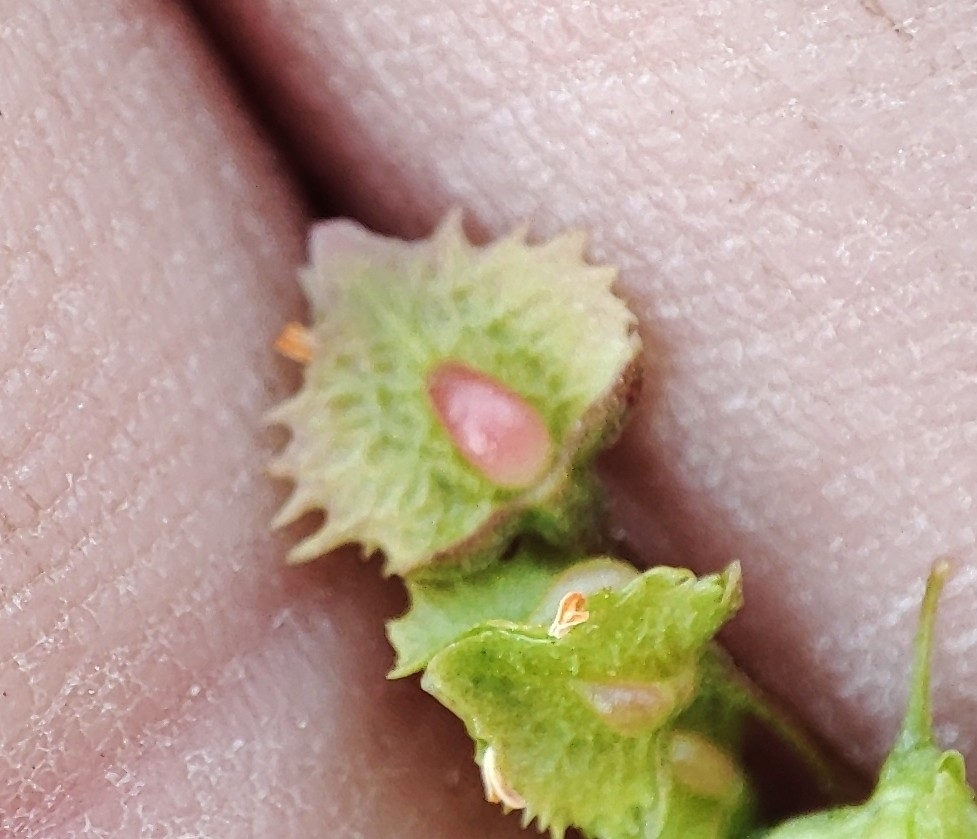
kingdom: Plantae
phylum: Tracheophyta
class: Magnoliopsida
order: Caryophyllales
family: Polygonaceae
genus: Rumex
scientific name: Rumex stenophyllus
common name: Narrowleaf dock
